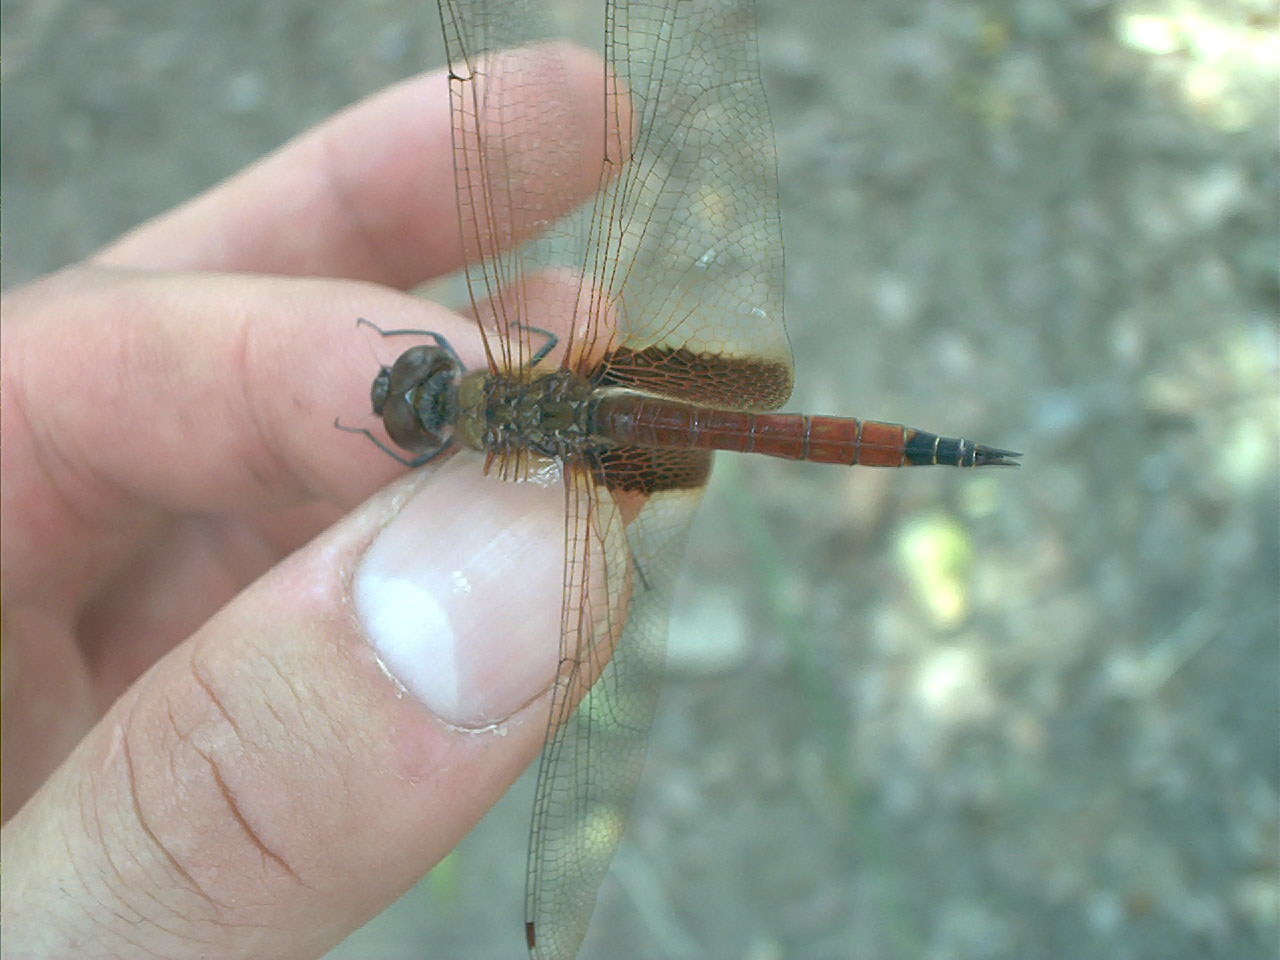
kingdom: Animalia
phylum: Arthropoda
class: Insecta
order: Odonata
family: Libellulidae
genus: Tramea
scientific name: Tramea darwini
